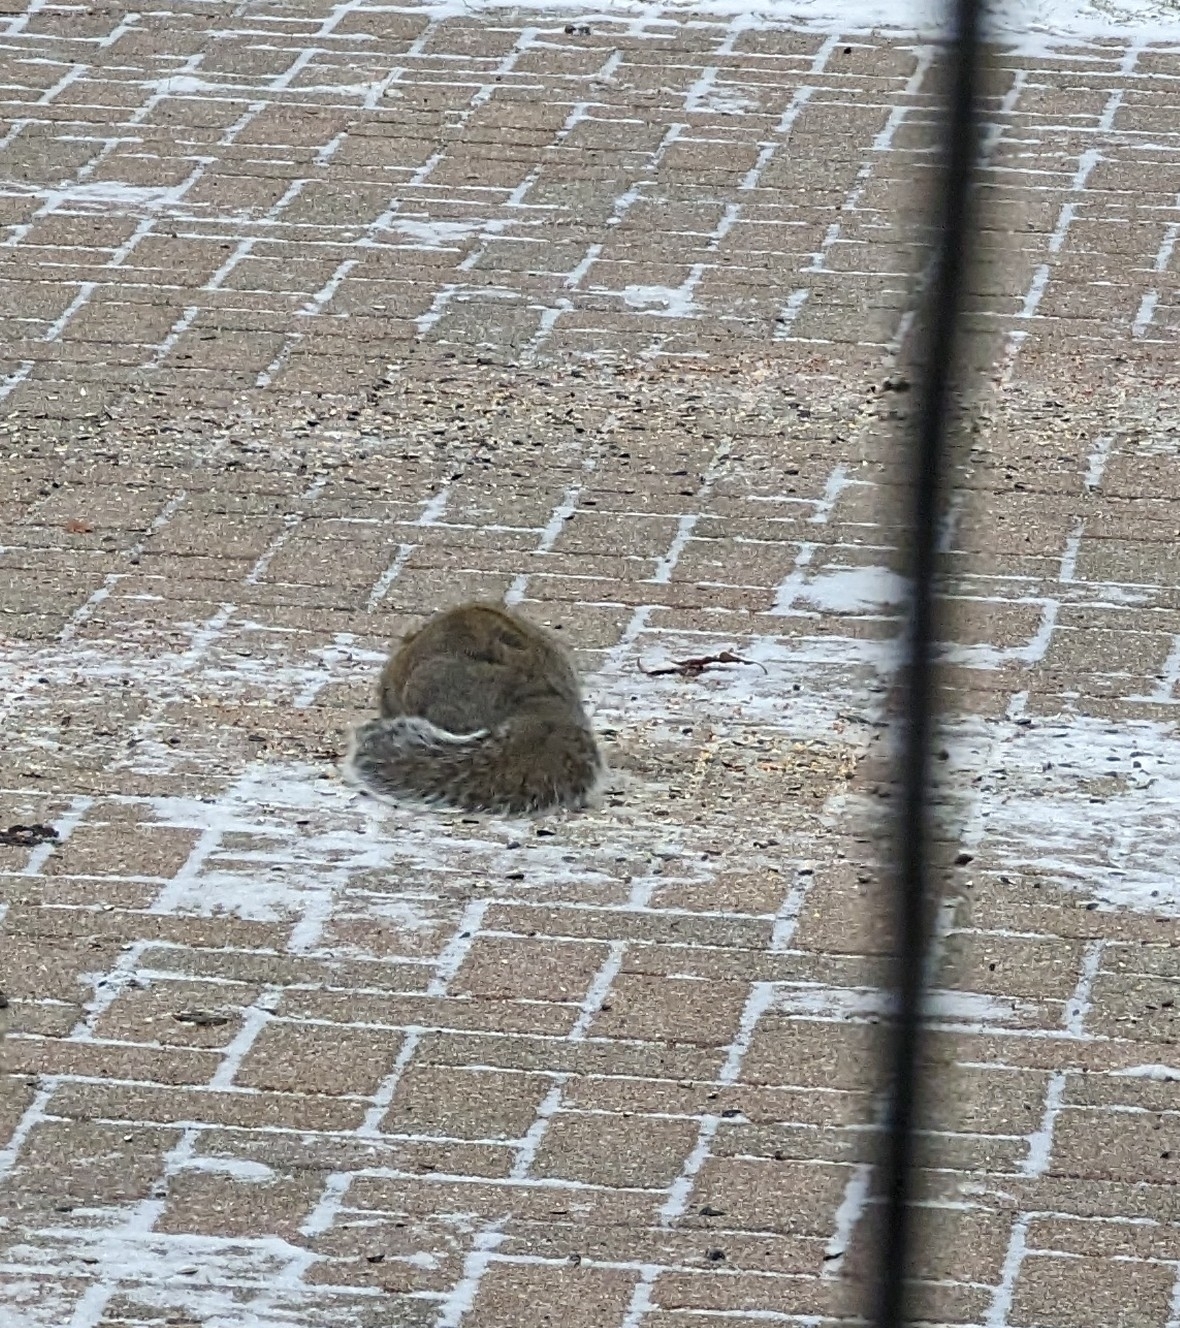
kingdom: Animalia
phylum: Chordata
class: Mammalia
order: Rodentia
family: Sciuridae
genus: Sciurus
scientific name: Sciurus carolinensis
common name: Eastern gray squirrel
